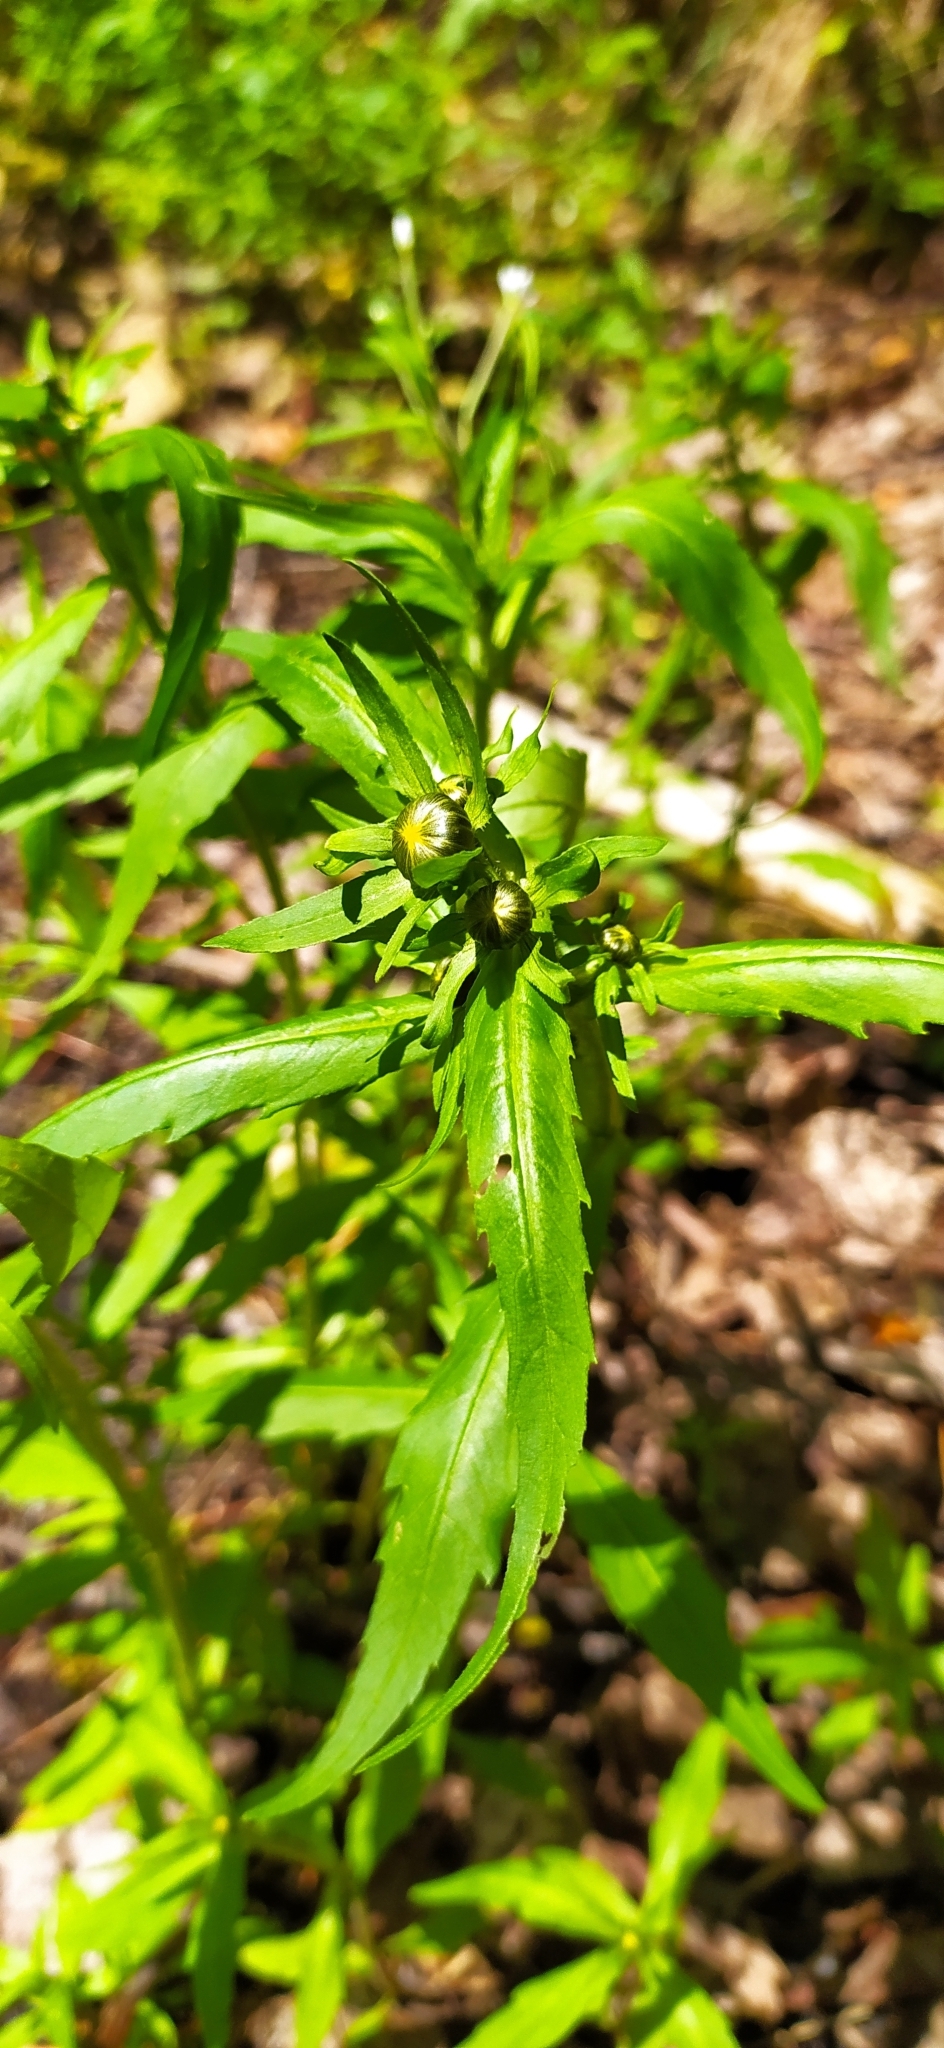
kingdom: Plantae
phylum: Tracheophyta
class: Magnoliopsida
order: Asterales
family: Asteraceae
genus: Bidens
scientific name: Bidens cernua
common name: Nodding bur-marigold
